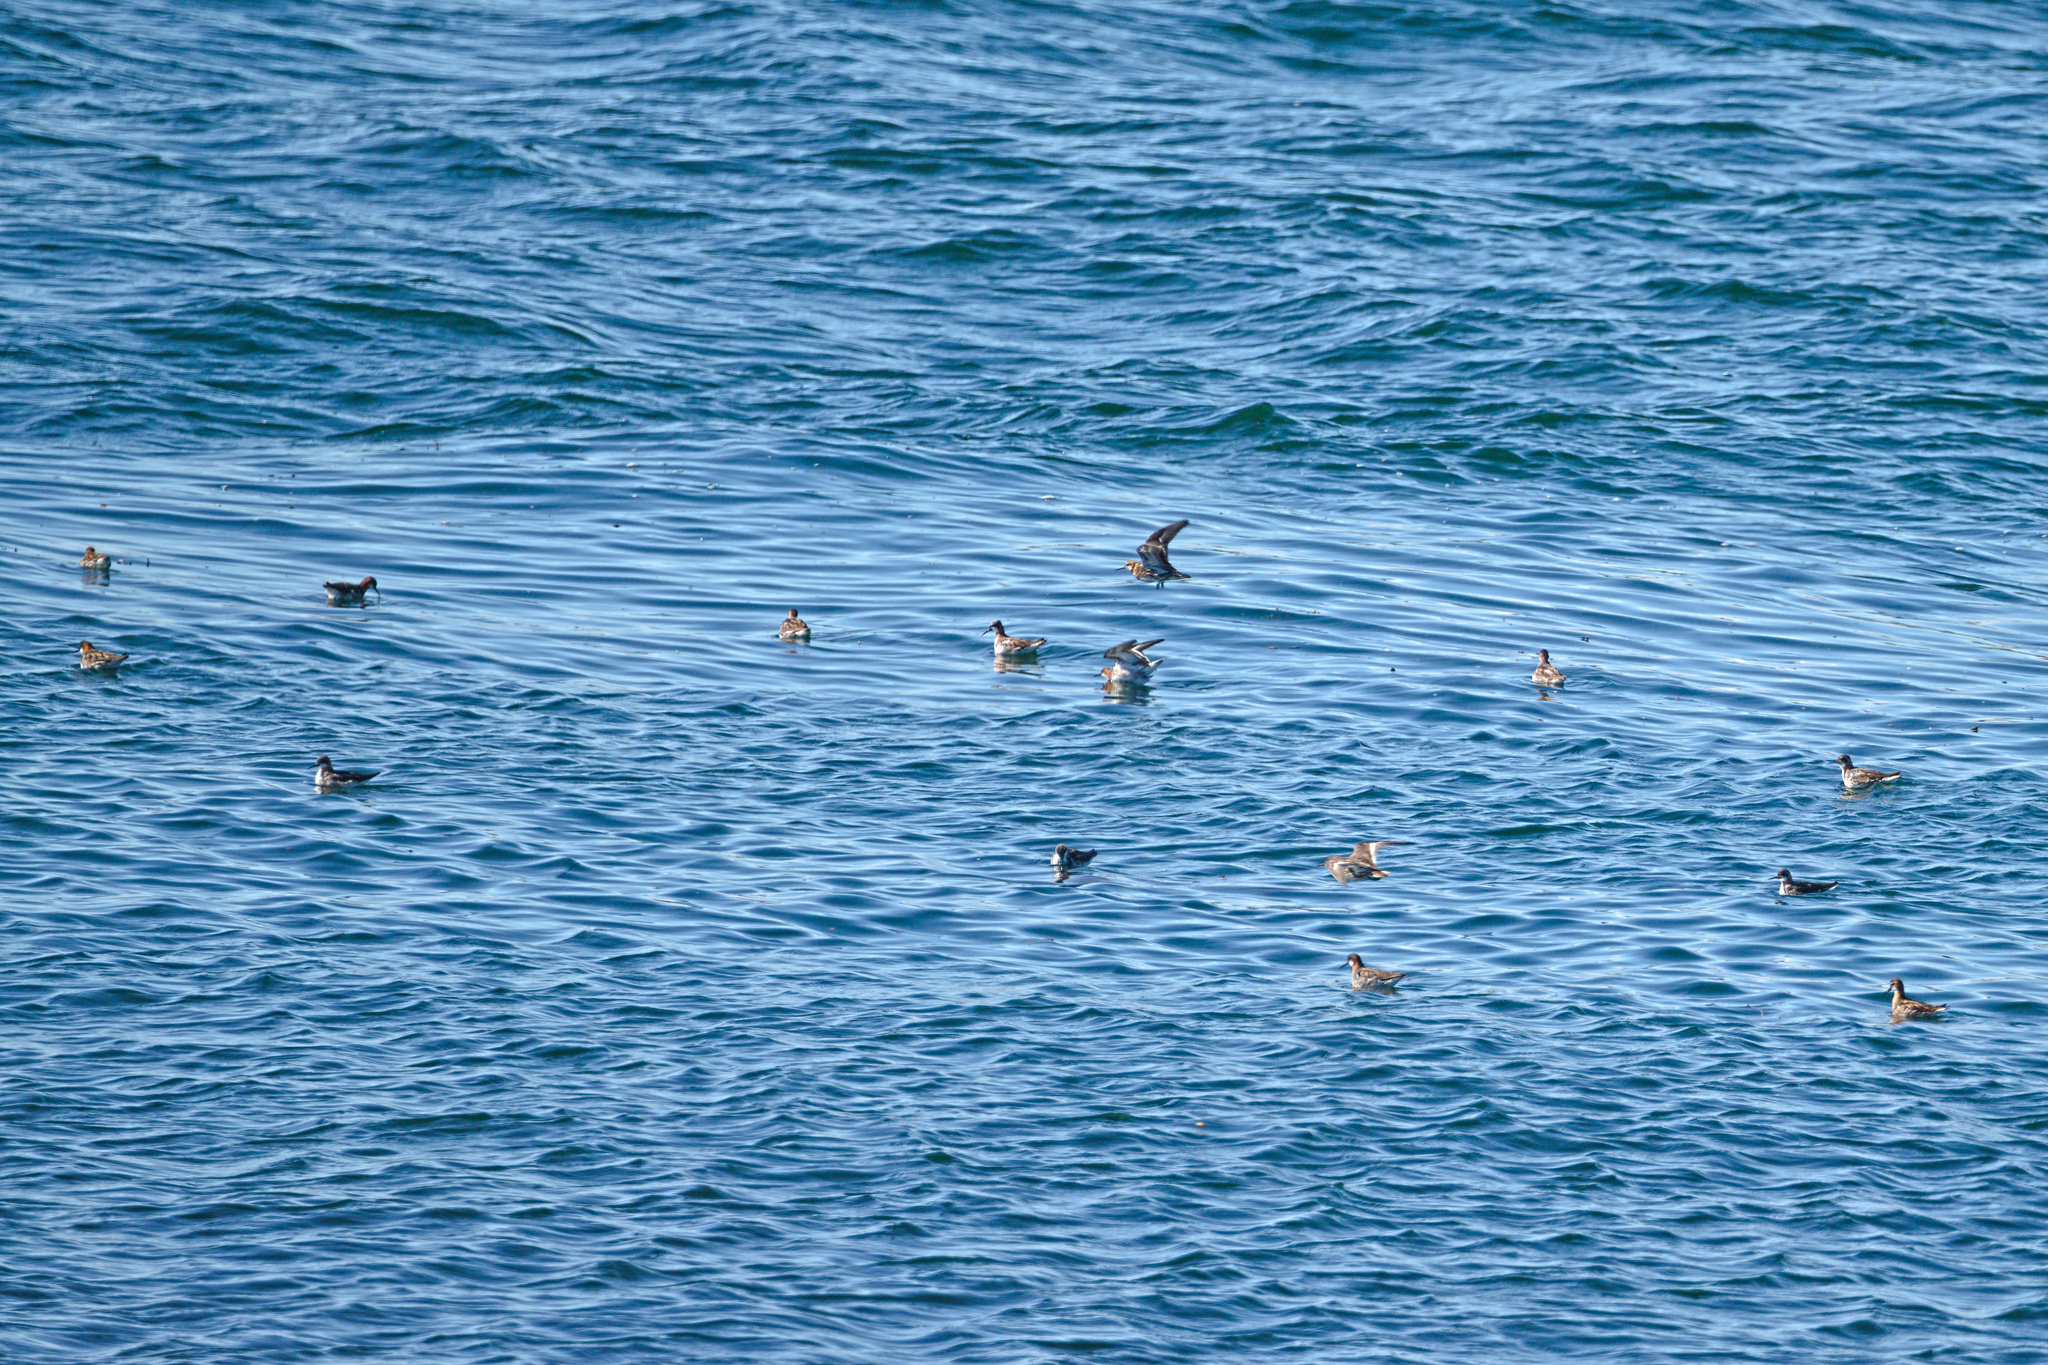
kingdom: Animalia
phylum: Chordata
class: Aves
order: Charadriiformes
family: Scolopacidae
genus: Phalaropus
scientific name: Phalaropus lobatus
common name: Red-necked phalarope
